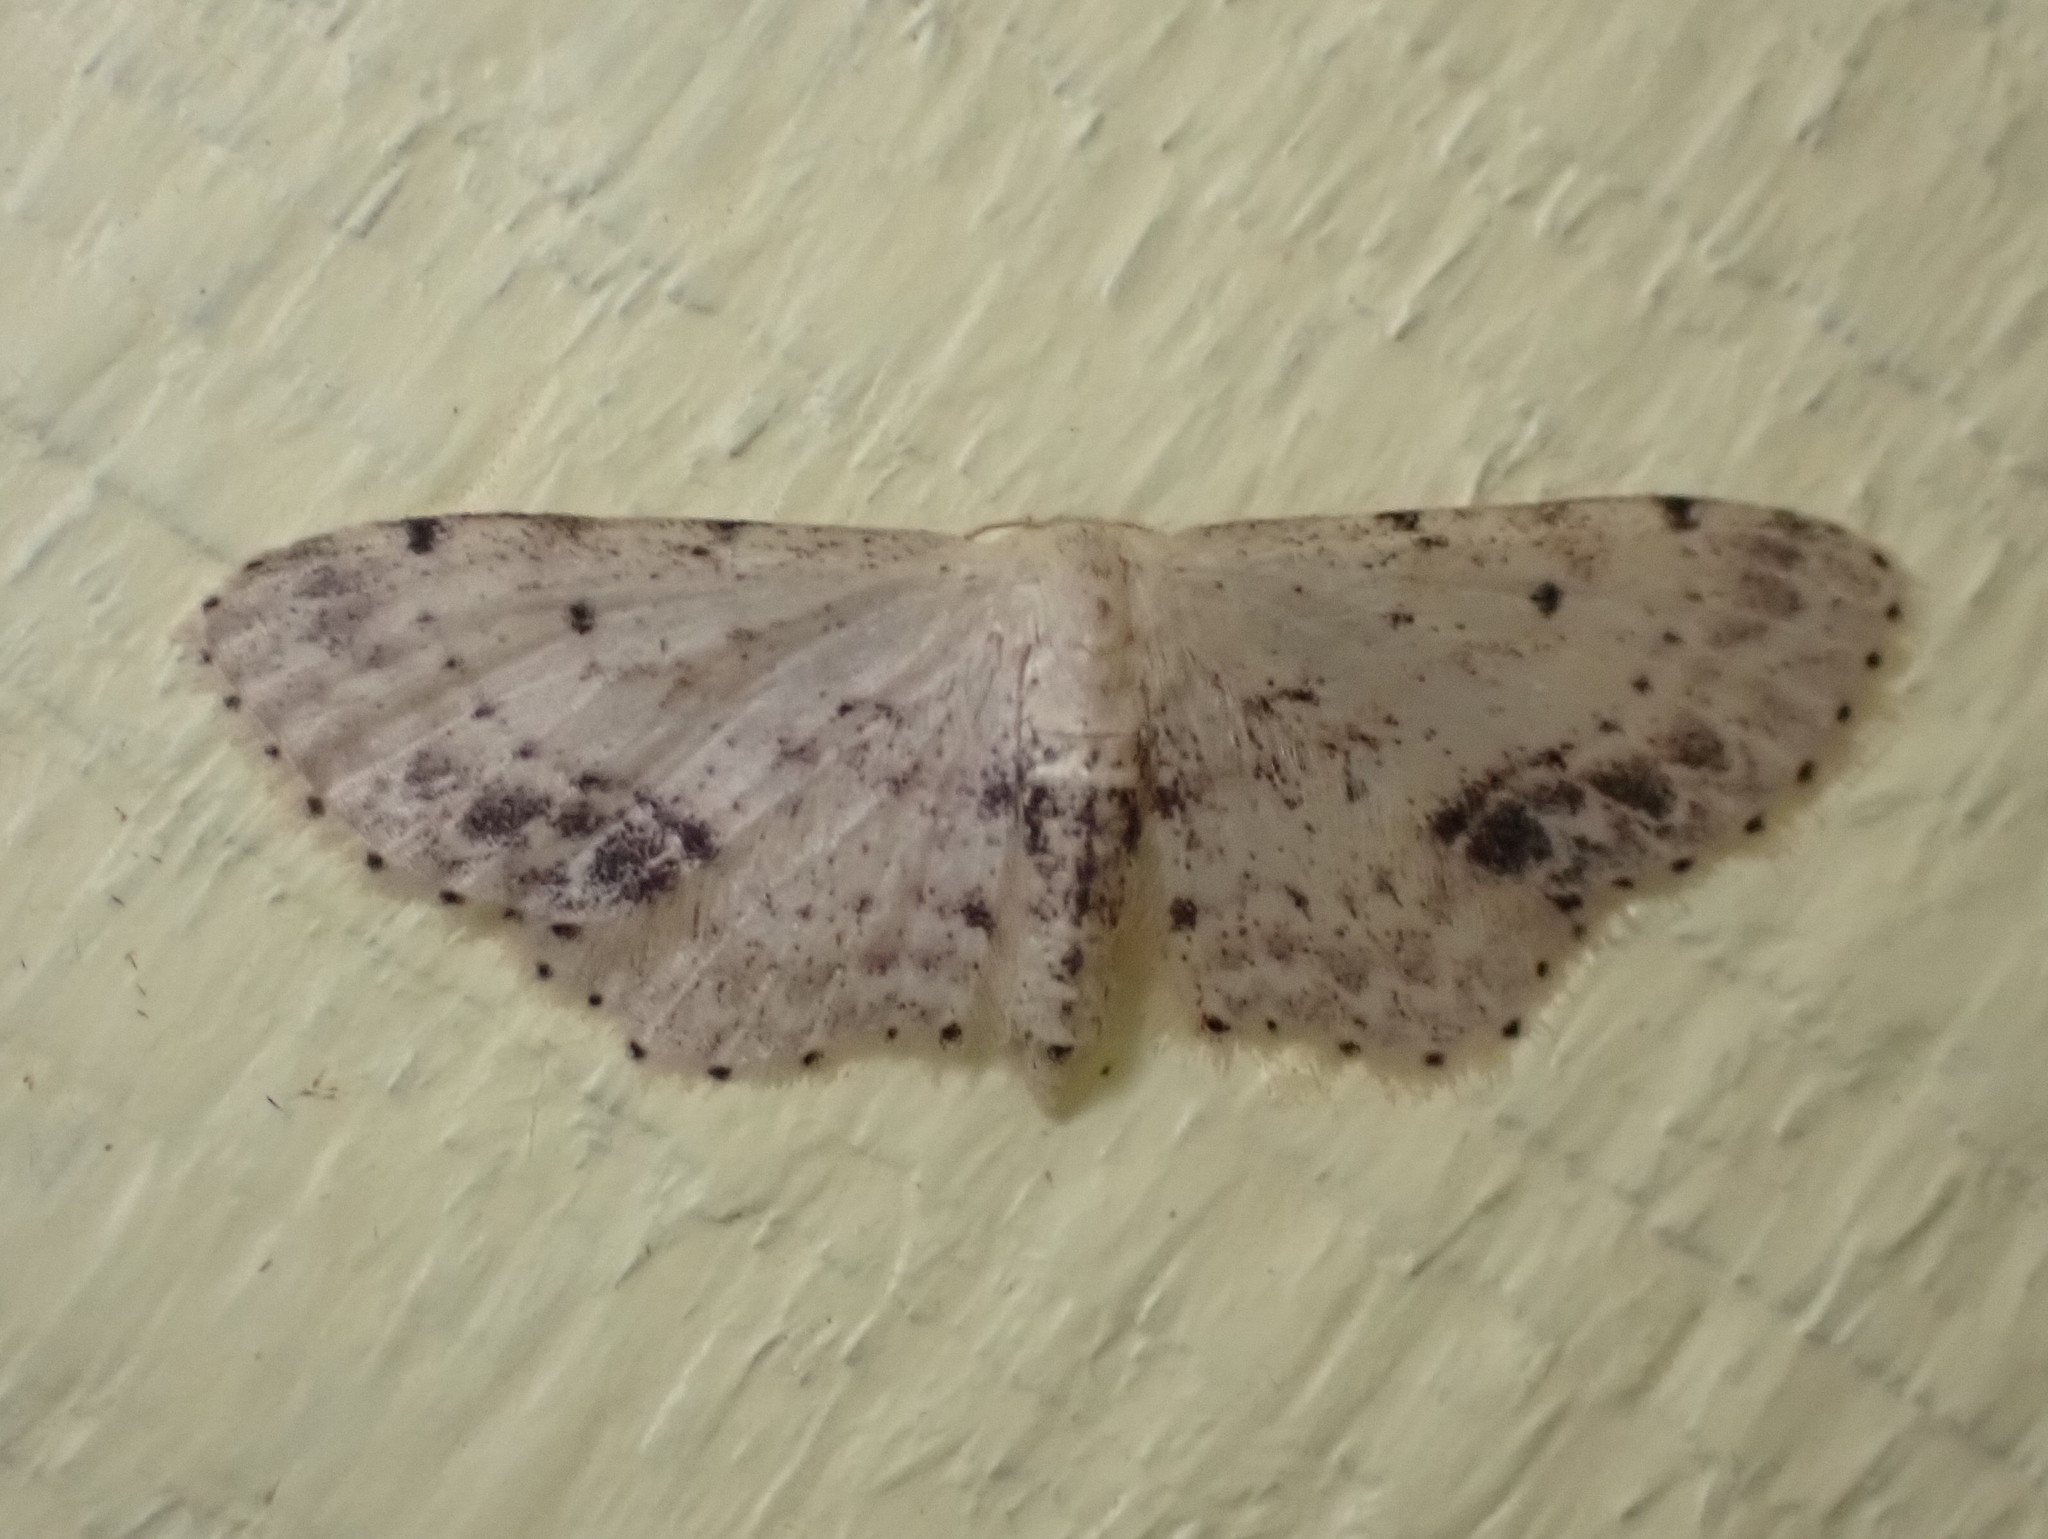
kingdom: Animalia
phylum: Arthropoda
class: Insecta
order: Lepidoptera
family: Geometridae
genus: Idaea
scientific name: Idaea dimidiata
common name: Single-dotted wave
